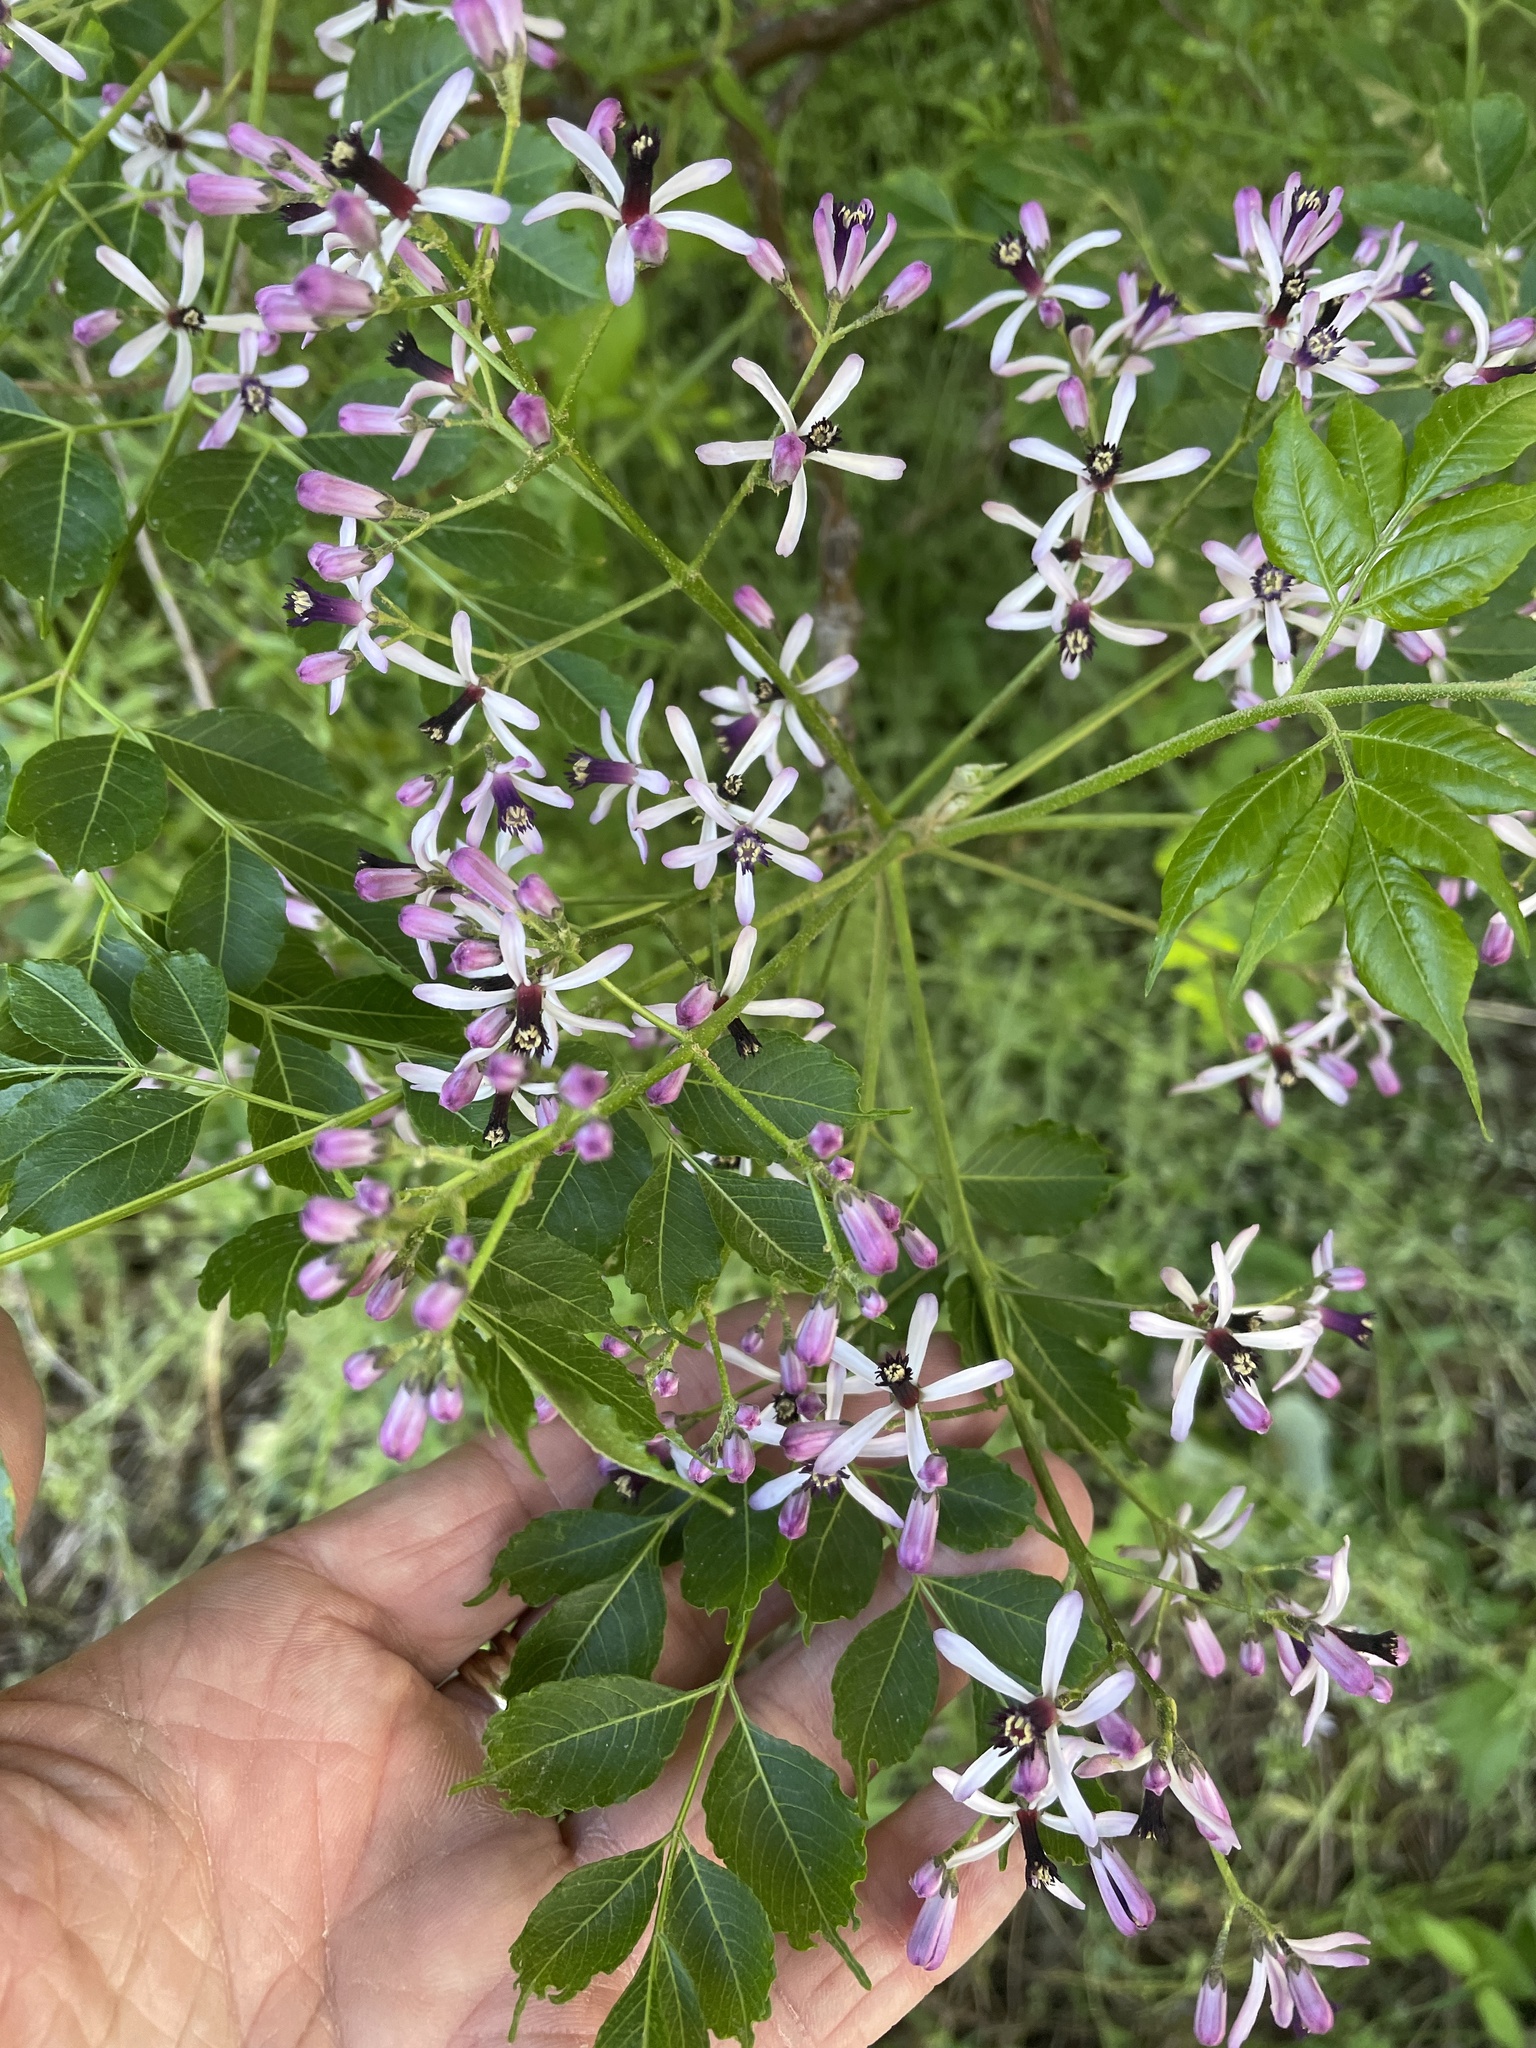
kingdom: Plantae
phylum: Tracheophyta
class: Magnoliopsida
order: Sapindales
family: Meliaceae
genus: Melia
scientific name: Melia azedarach
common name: Chinaberrytree
